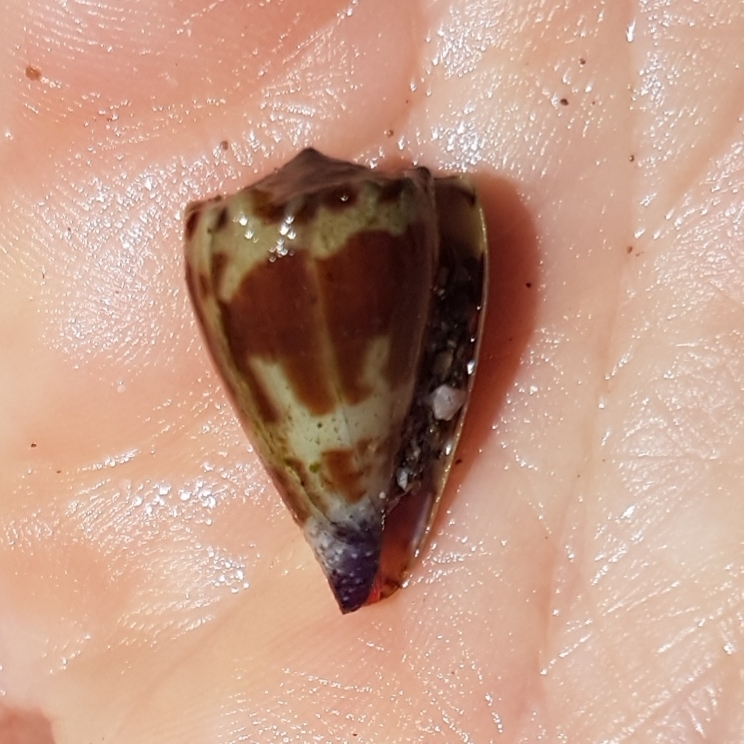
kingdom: Animalia
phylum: Mollusca
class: Gastropoda
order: Neogastropoda
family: Conidae
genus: Conus
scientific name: Conus nux
